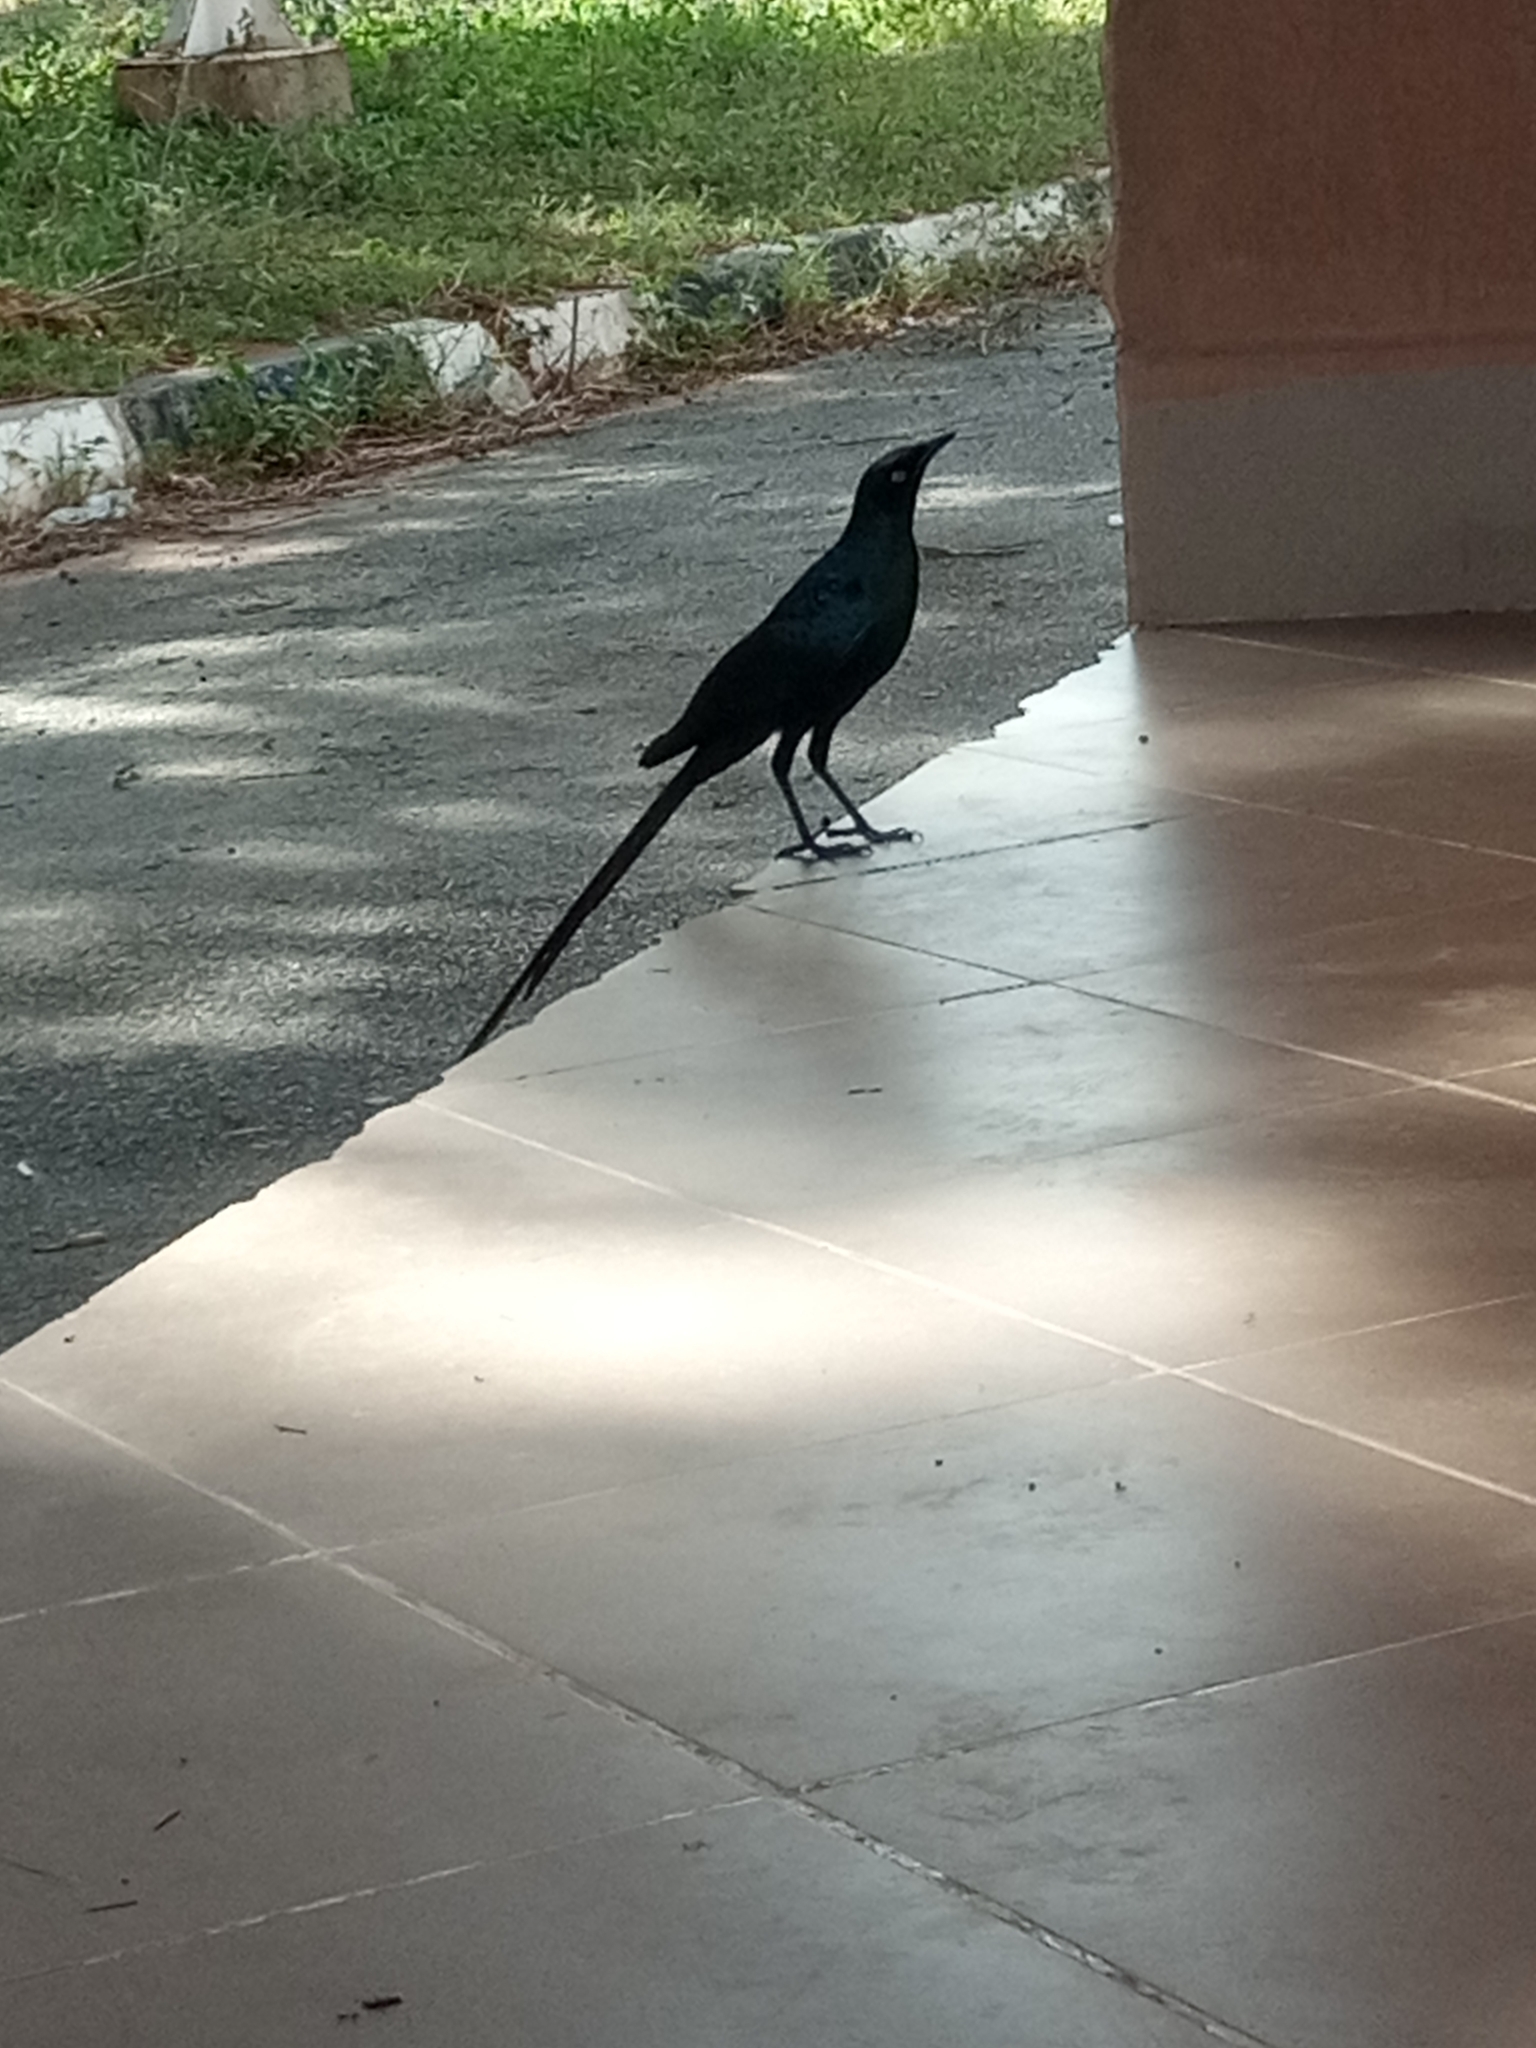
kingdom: Animalia
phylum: Chordata
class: Aves
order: Passeriformes
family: Sturnidae
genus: Lamprotornis
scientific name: Lamprotornis caudatus
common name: Long-tailed glossy starling
